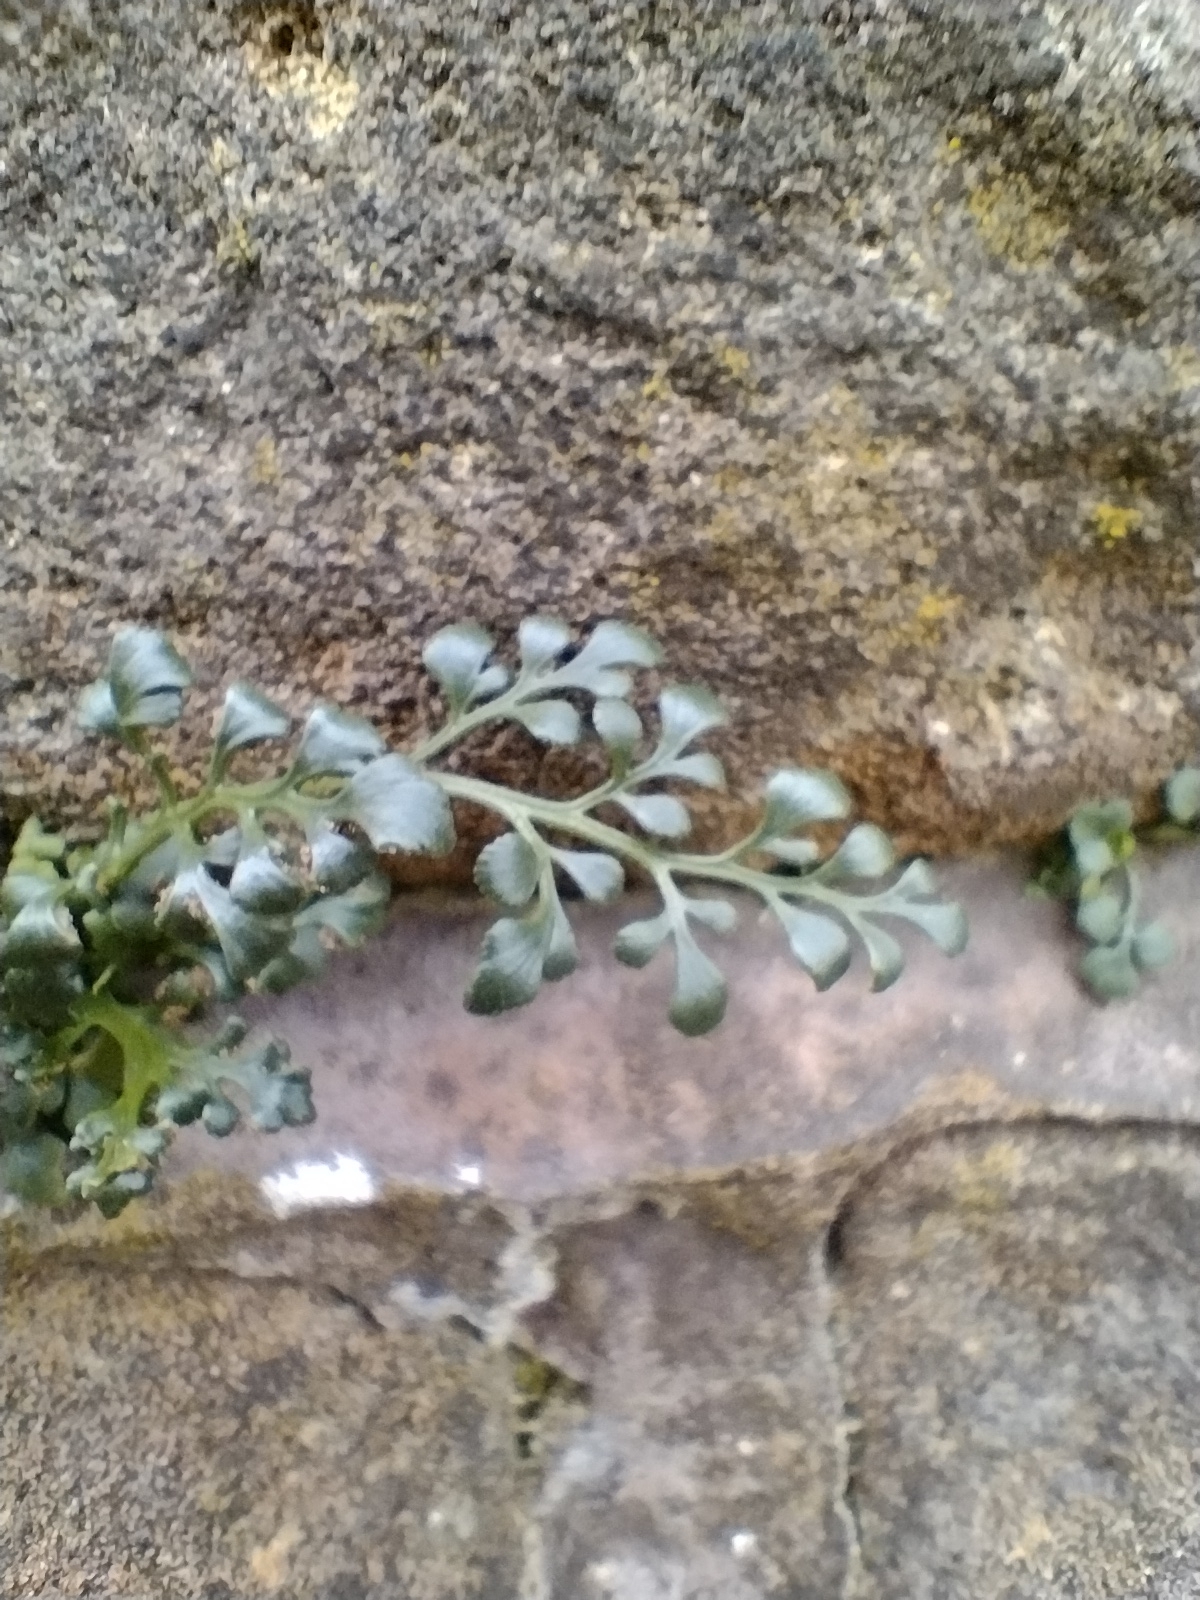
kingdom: Plantae
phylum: Tracheophyta
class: Polypodiopsida
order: Polypodiales
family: Aspleniaceae
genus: Asplenium
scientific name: Asplenium ruta-muraria
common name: Wall-rue
